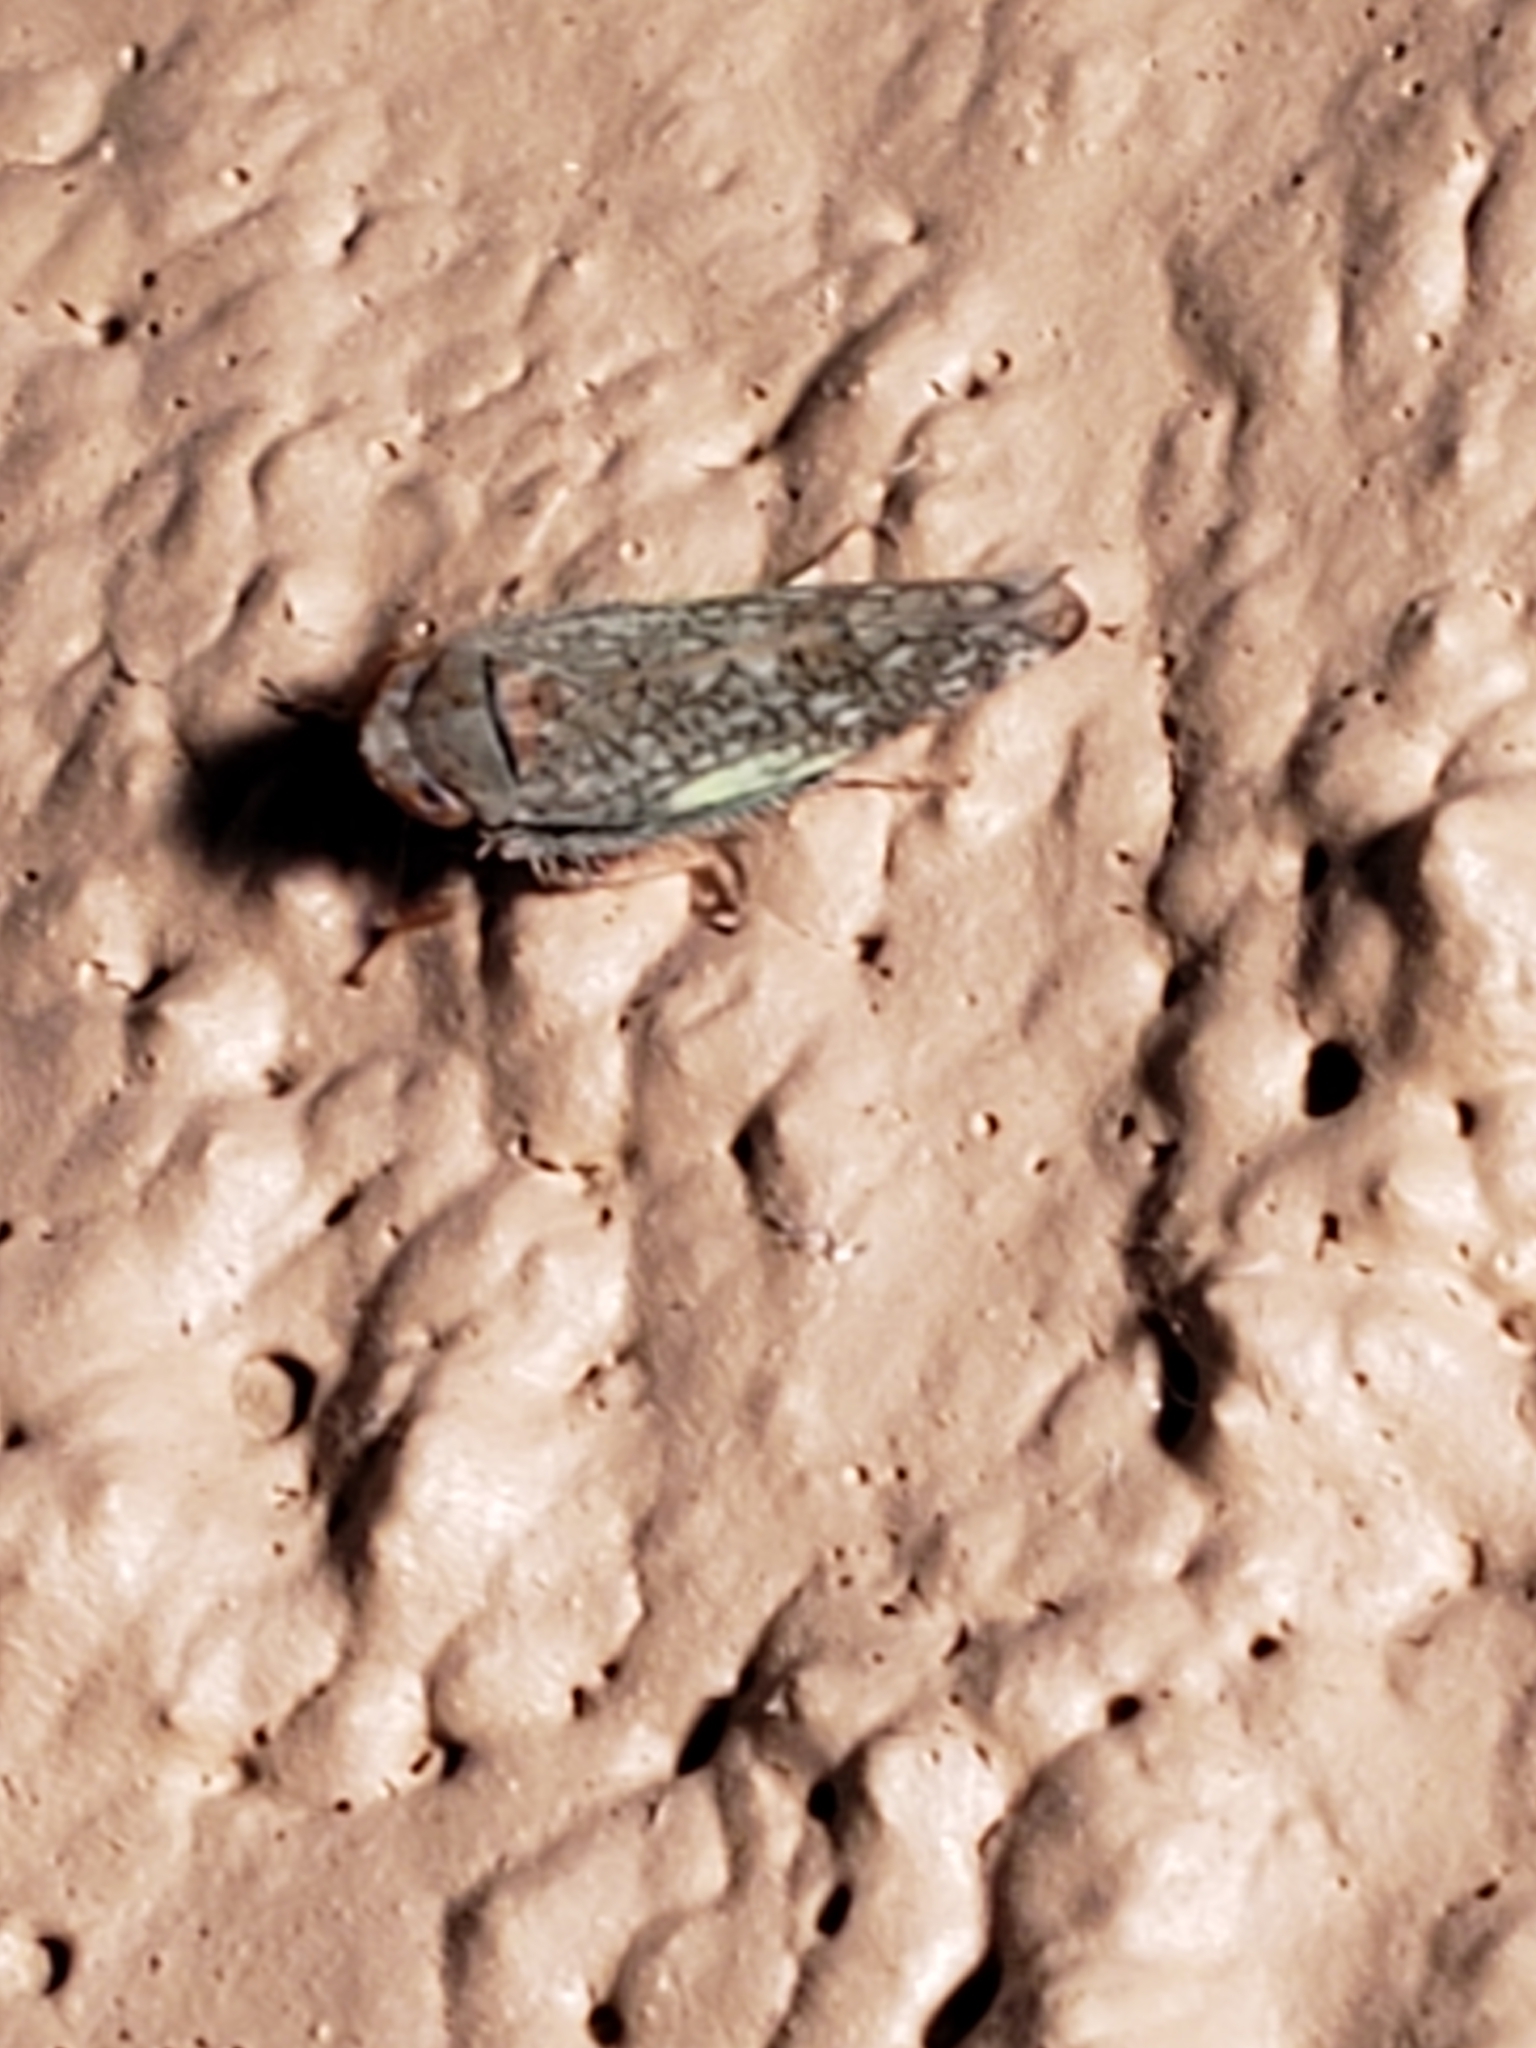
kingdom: Animalia
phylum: Arthropoda
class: Insecta
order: Hemiptera
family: Cicadellidae
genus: Orientus
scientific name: Orientus ishidae
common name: Japanese leafhopper
